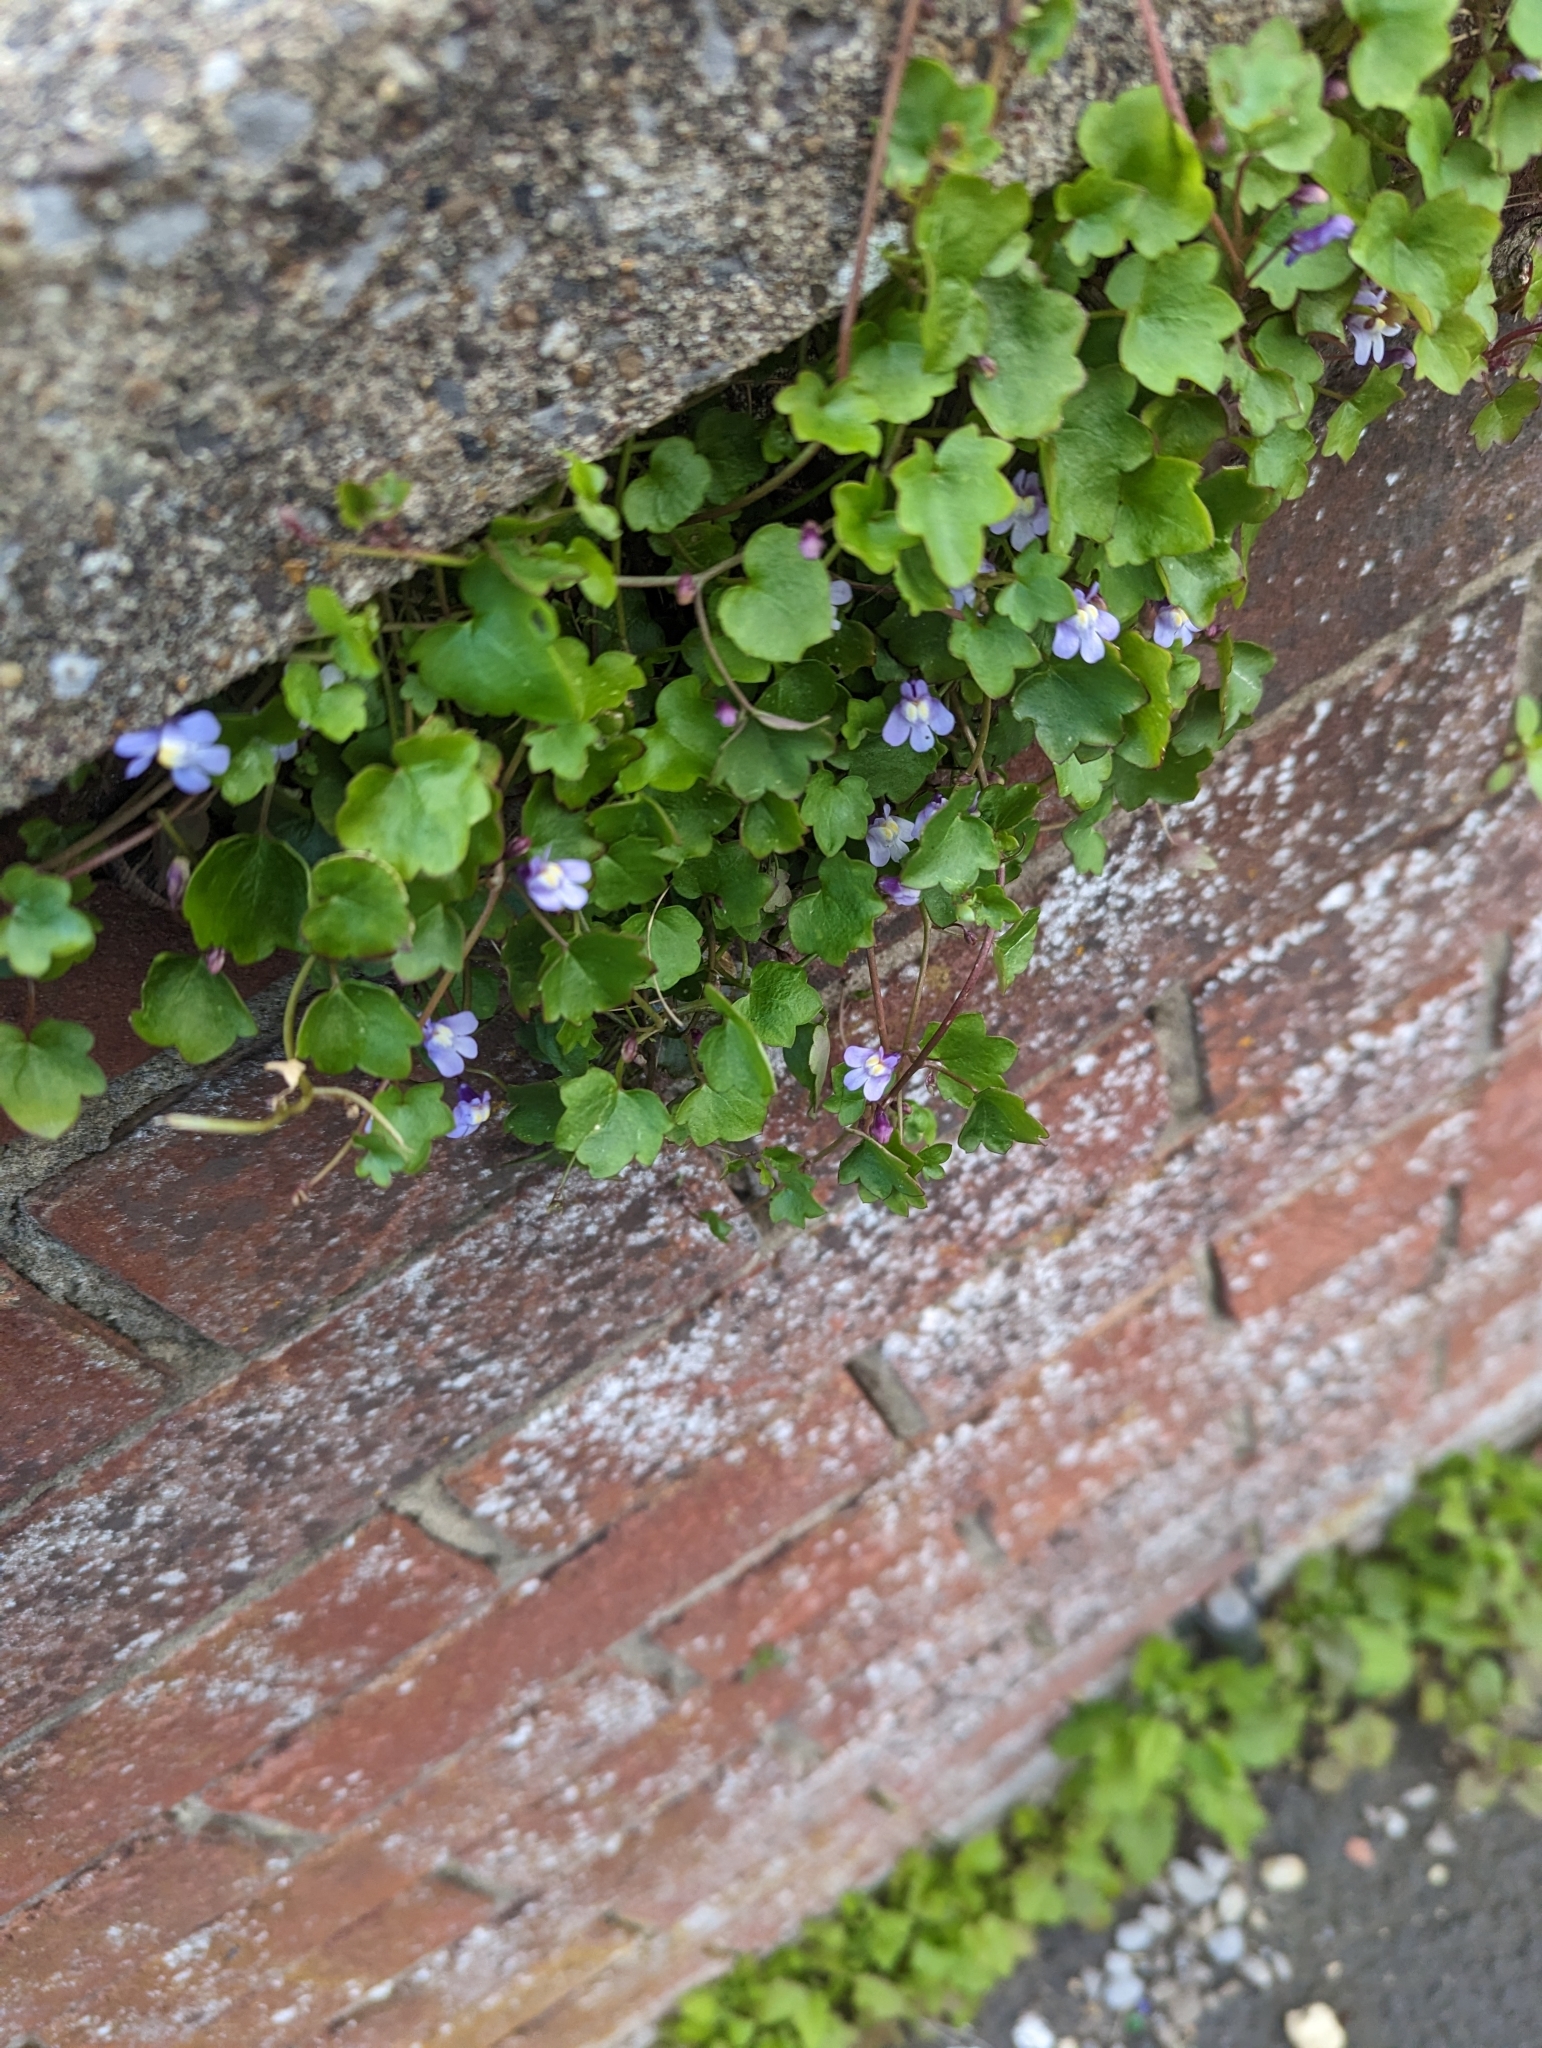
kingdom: Plantae
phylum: Tracheophyta
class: Magnoliopsida
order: Lamiales
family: Plantaginaceae
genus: Cymbalaria
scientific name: Cymbalaria muralis
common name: Ivy-leaved toadflax
